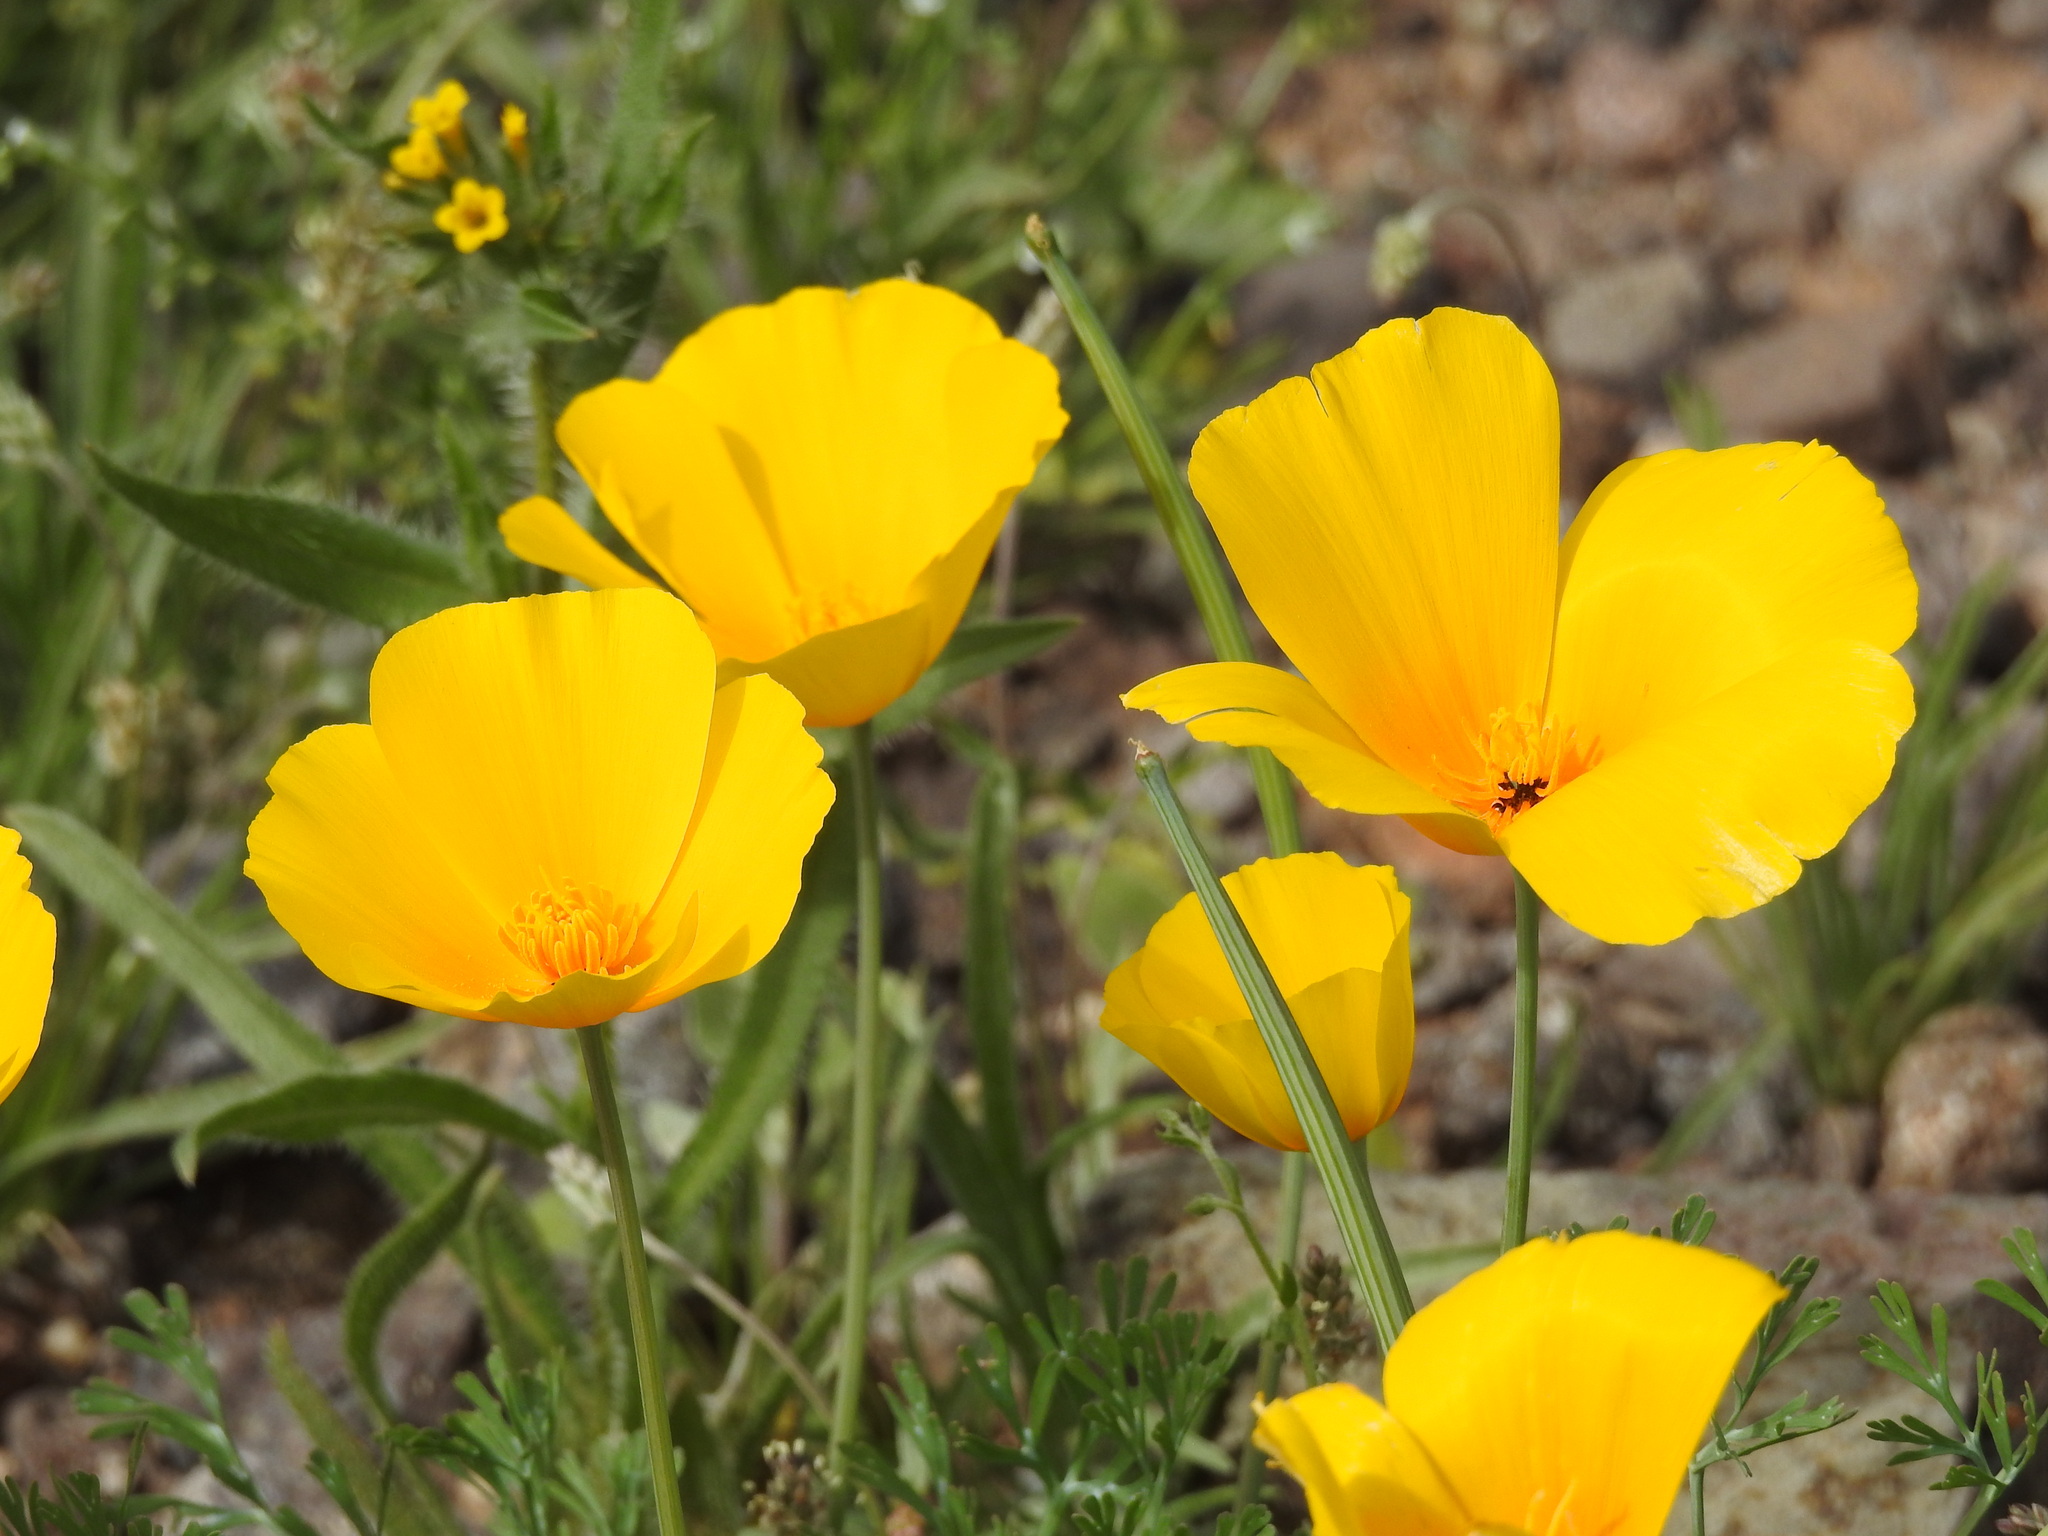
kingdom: Plantae
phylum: Tracheophyta
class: Magnoliopsida
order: Ranunculales
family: Papaveraceae
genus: Eschscholzia
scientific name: Eschscholzia californica
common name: California poppy
